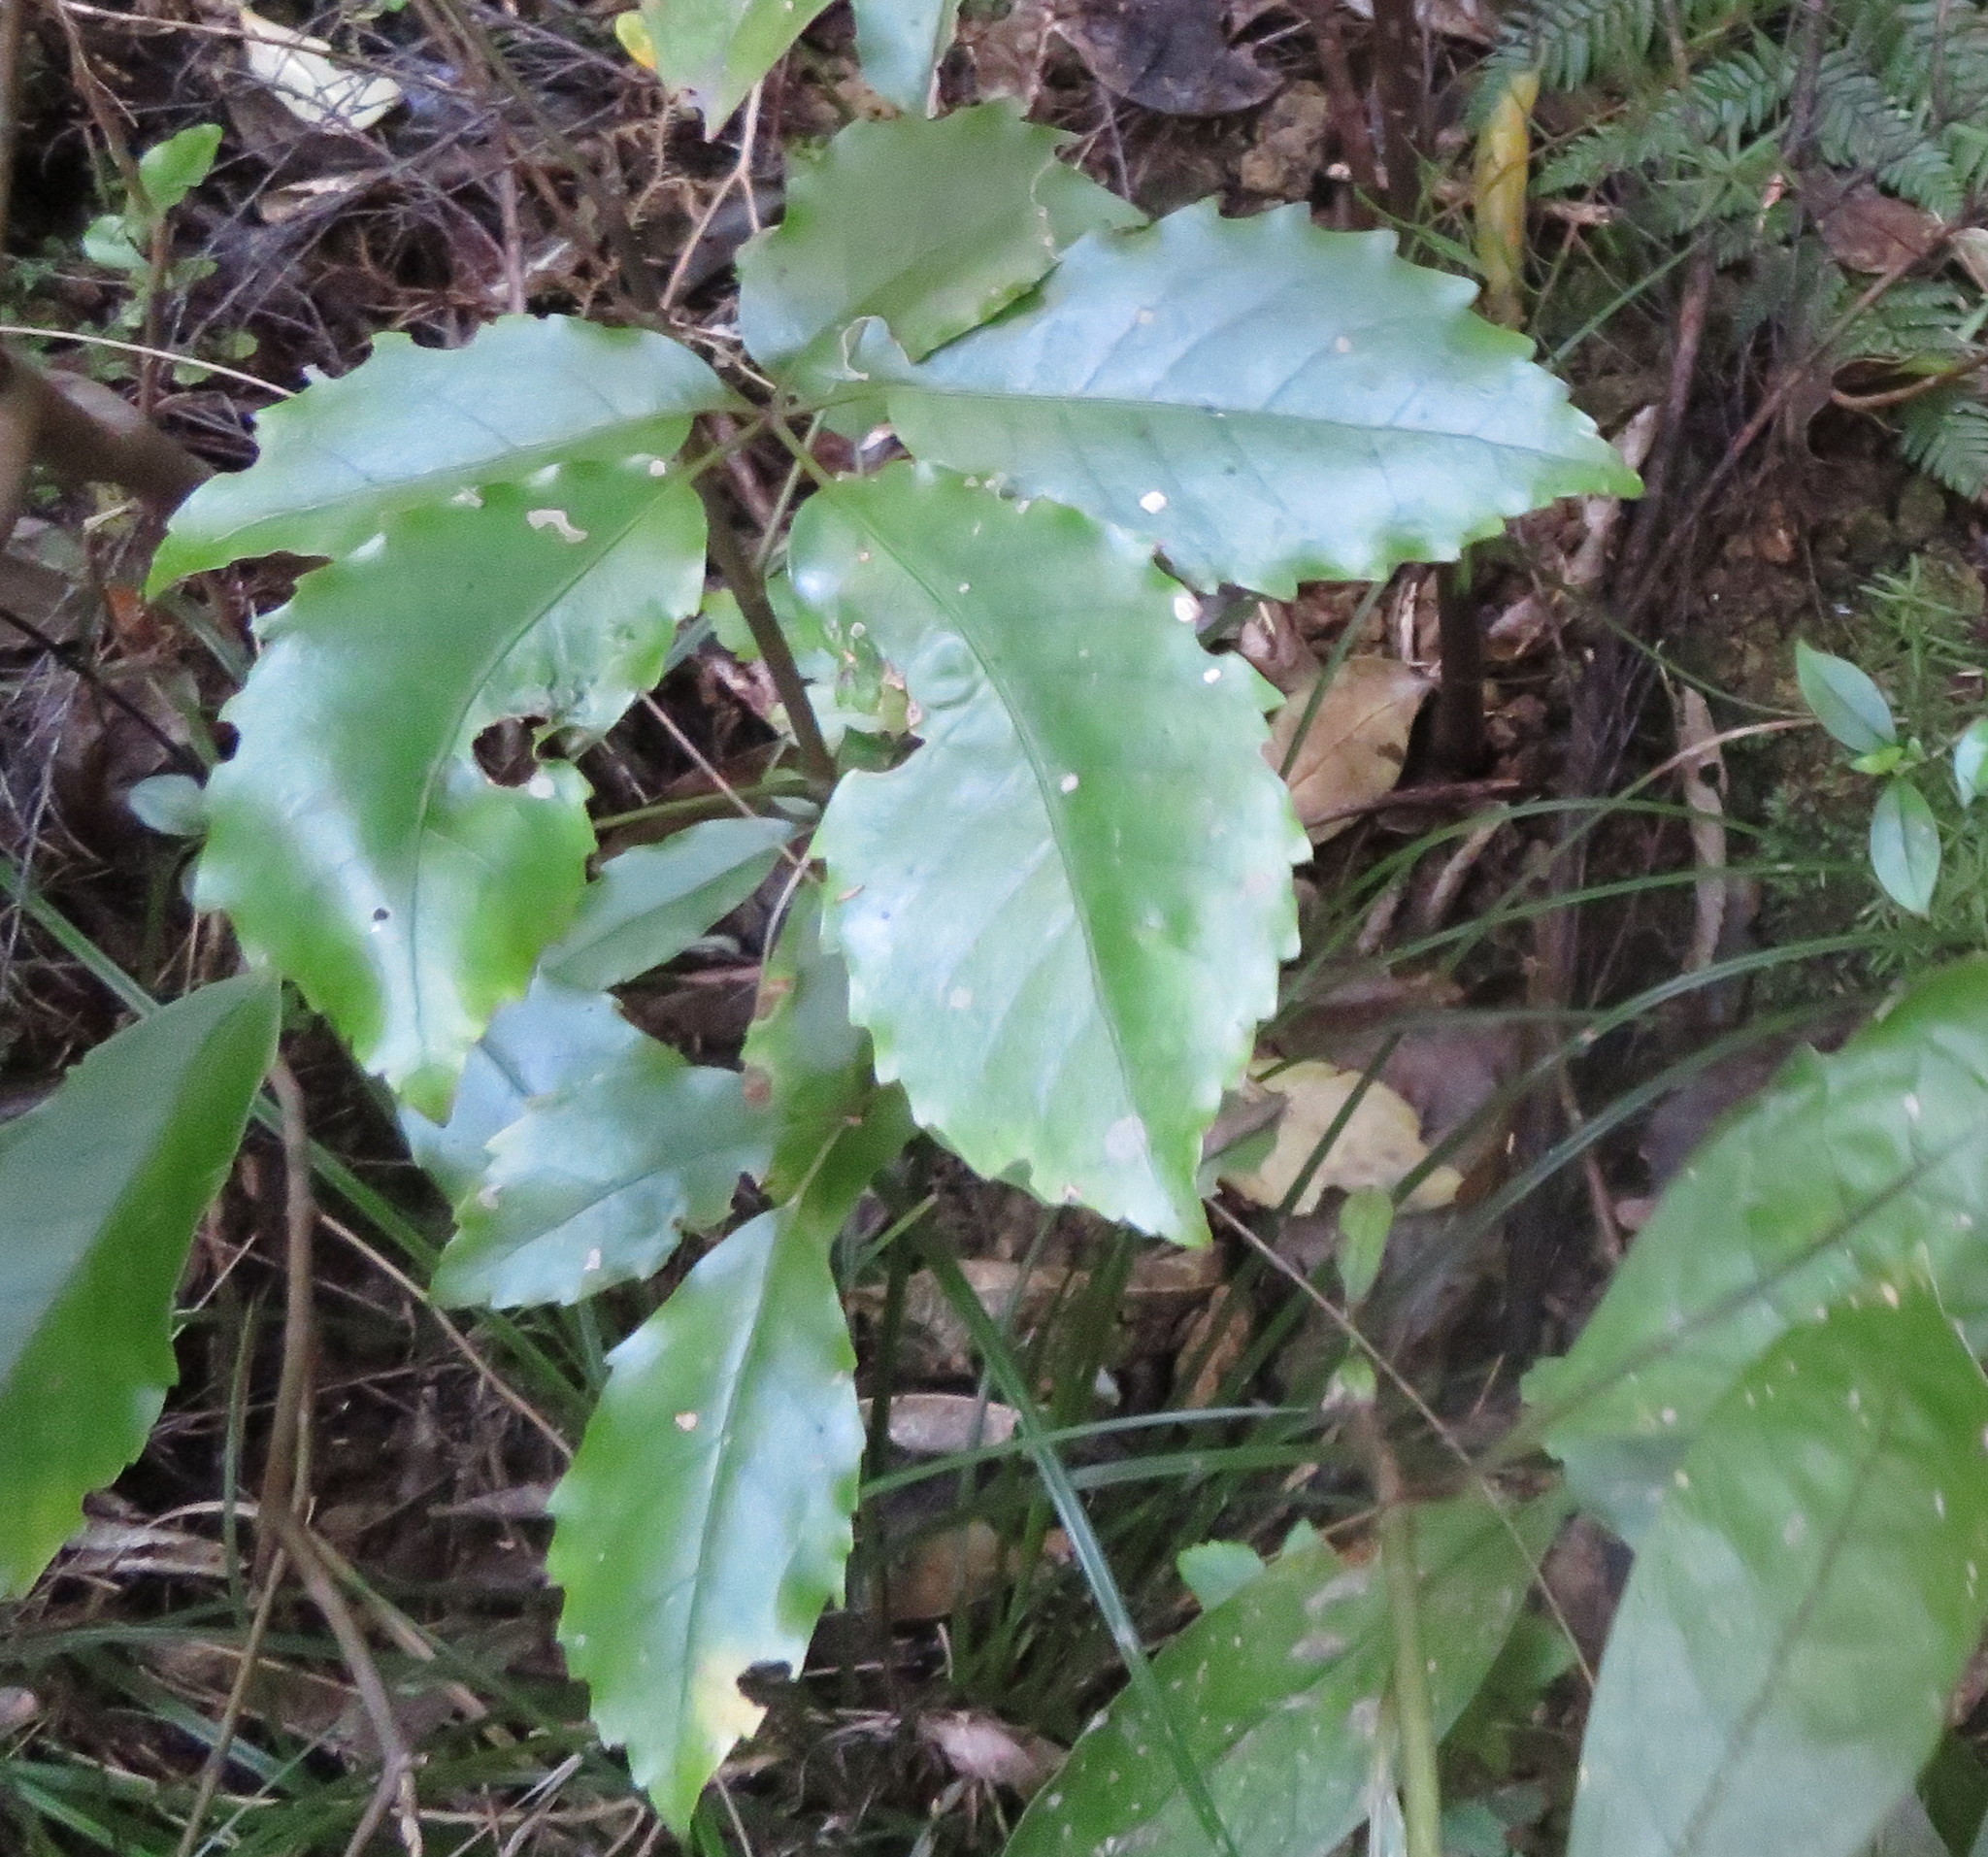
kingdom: Plantae
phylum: Tracheophyta
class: Magnoliopsida
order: Apiales
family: Araliaceae
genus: Neopanax
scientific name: Neopanax arboreus
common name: Five-fingers
